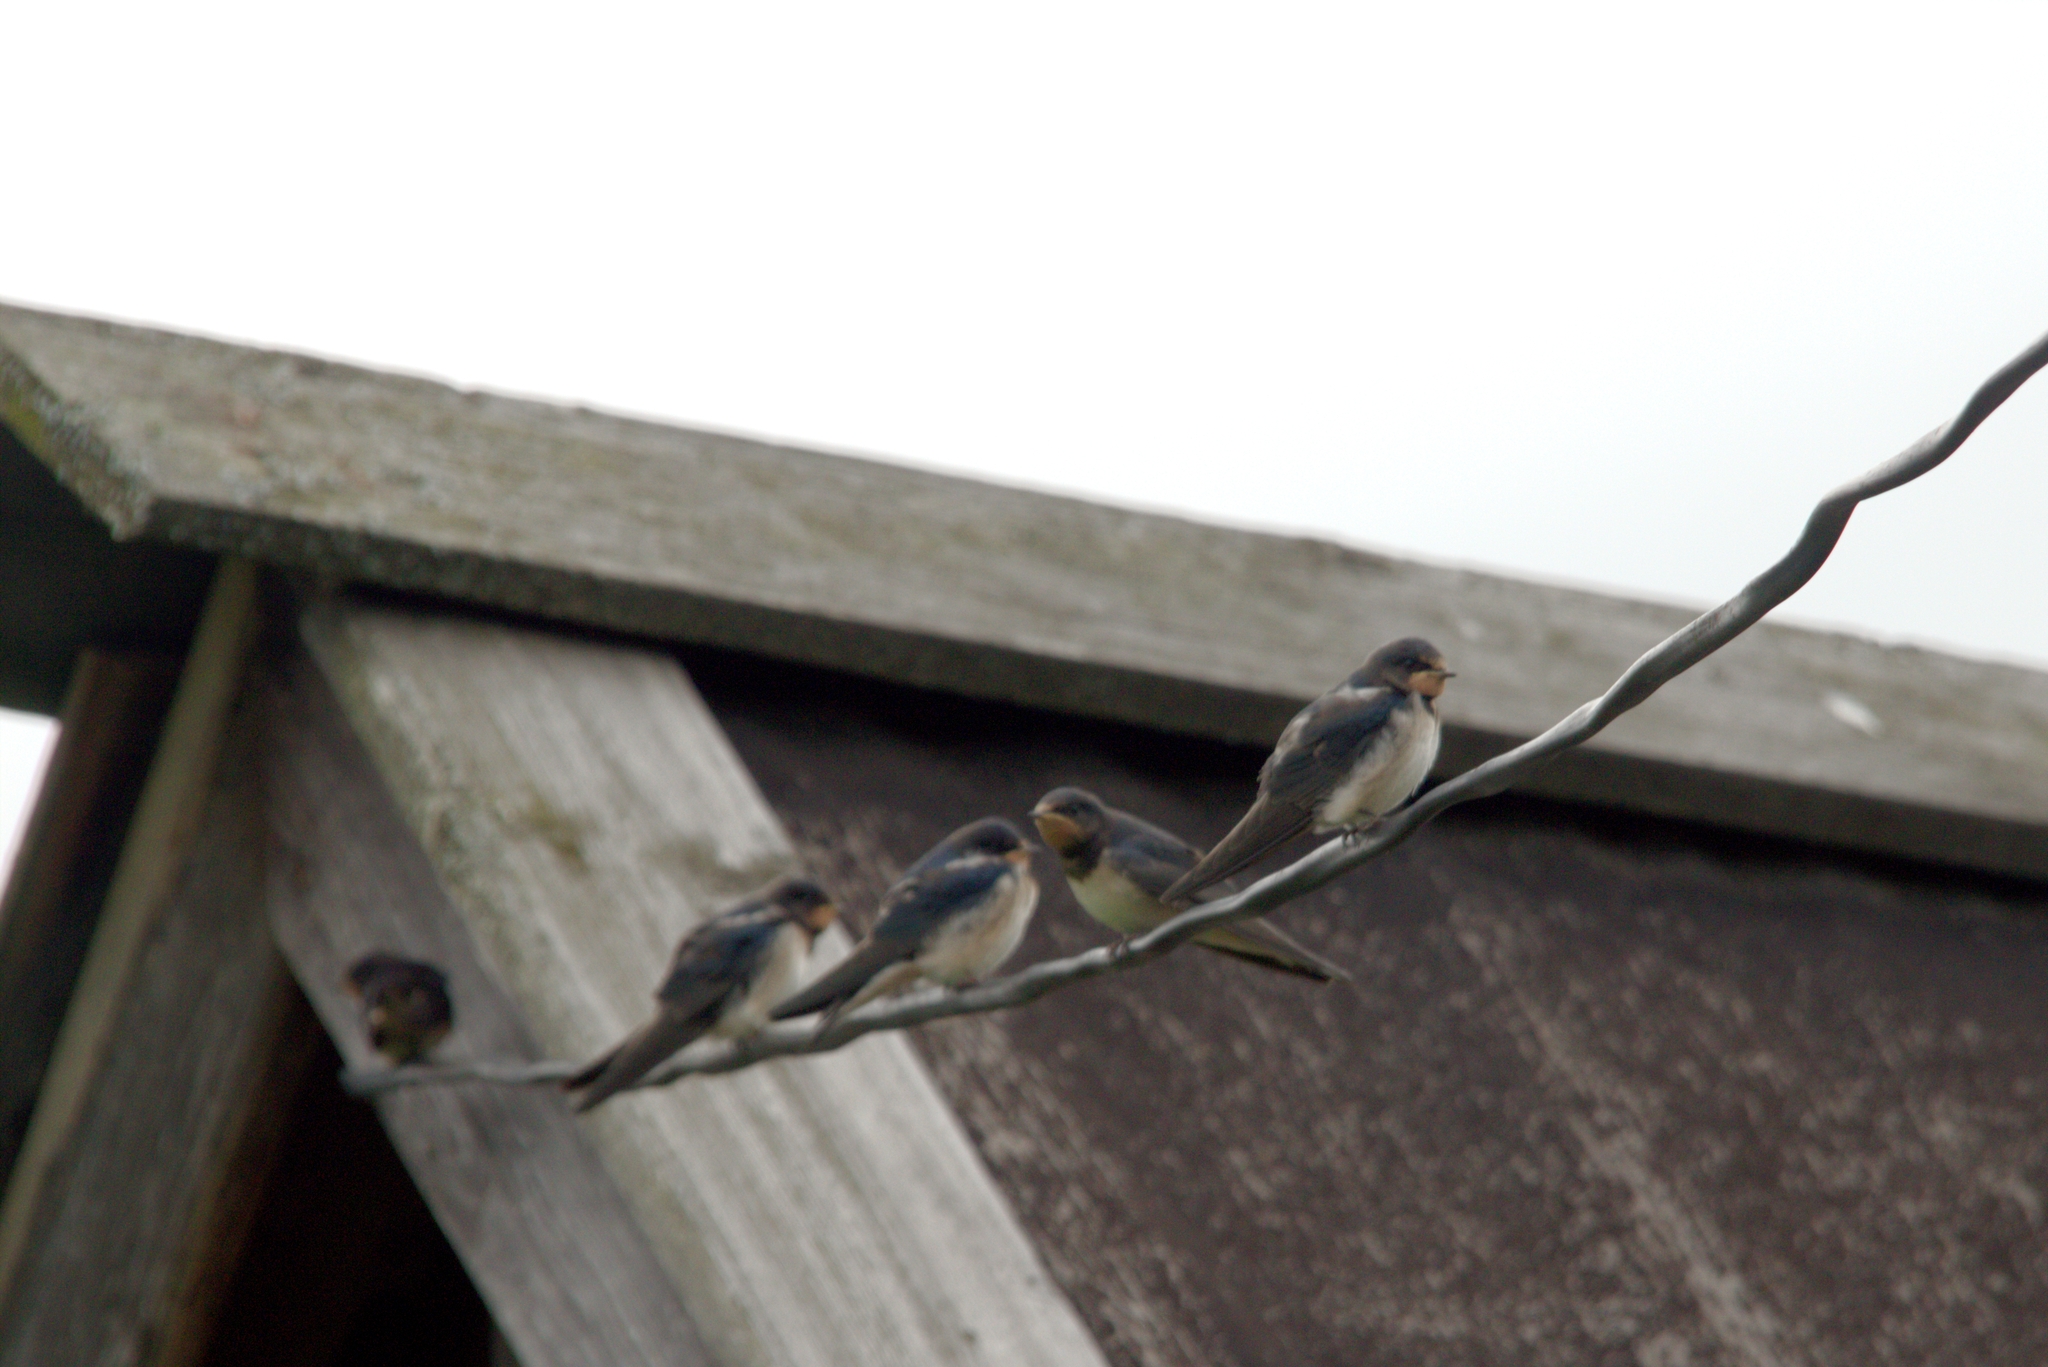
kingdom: Animalia
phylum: Chordata
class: Aves
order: Passeriformes
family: Hirundinidae
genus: Hirundo
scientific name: Hirundo rustica
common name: Barn swallow
